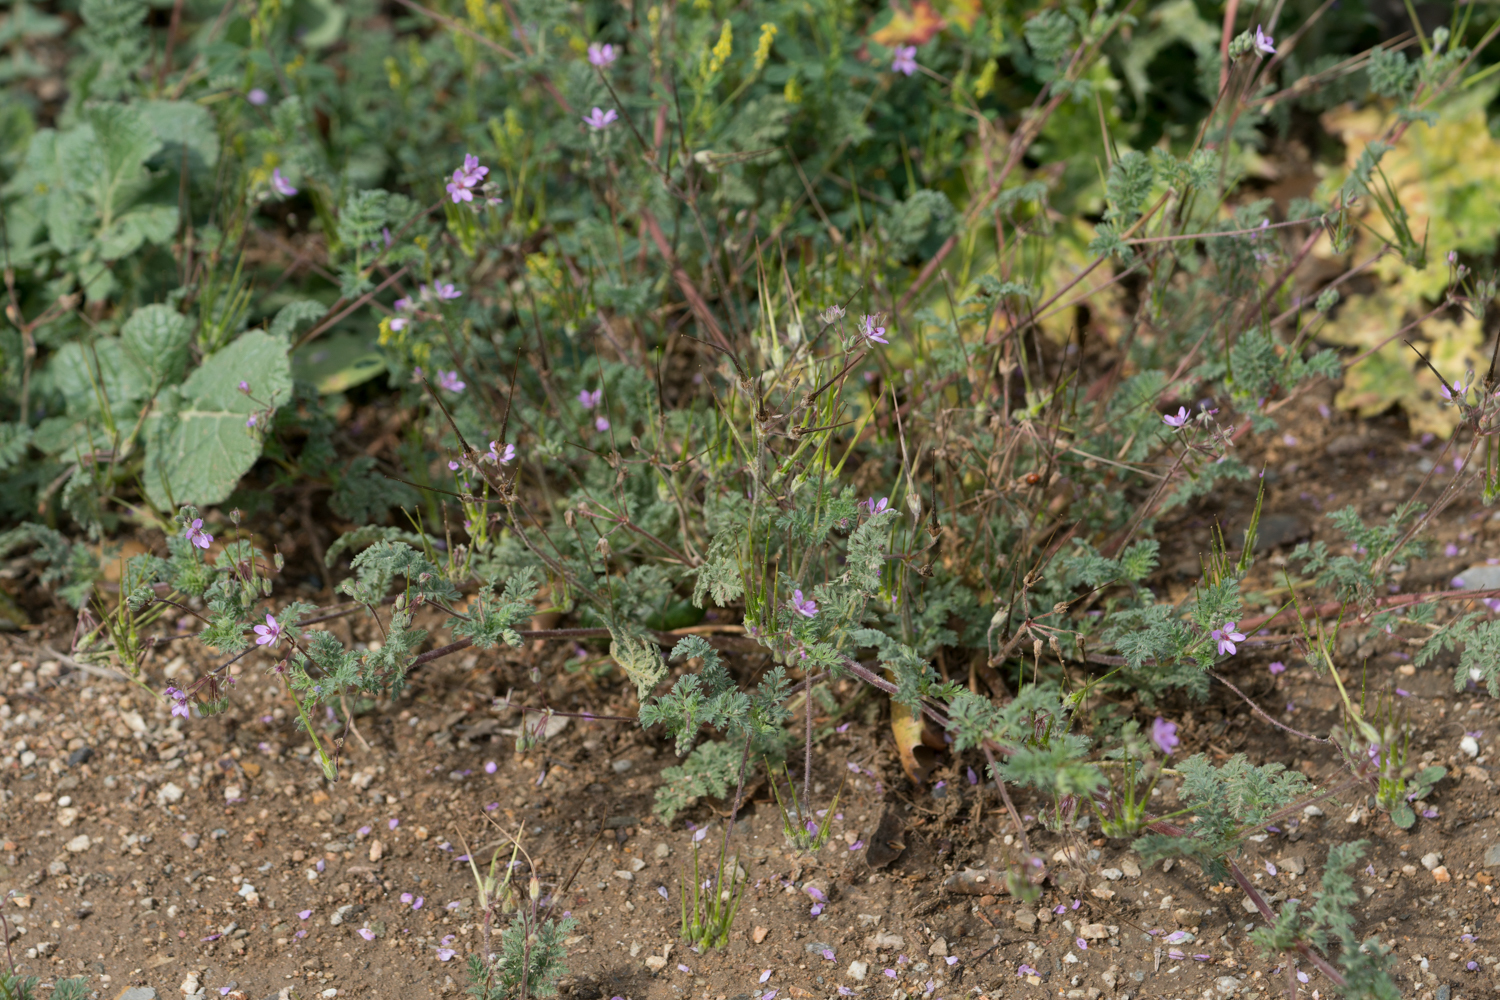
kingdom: Plantae
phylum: Tracheophyta
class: Magnoliopsida
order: Geraniales
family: Geraniaceae
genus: Erodium
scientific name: Erodium cicutarium
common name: Common stork's-bill
